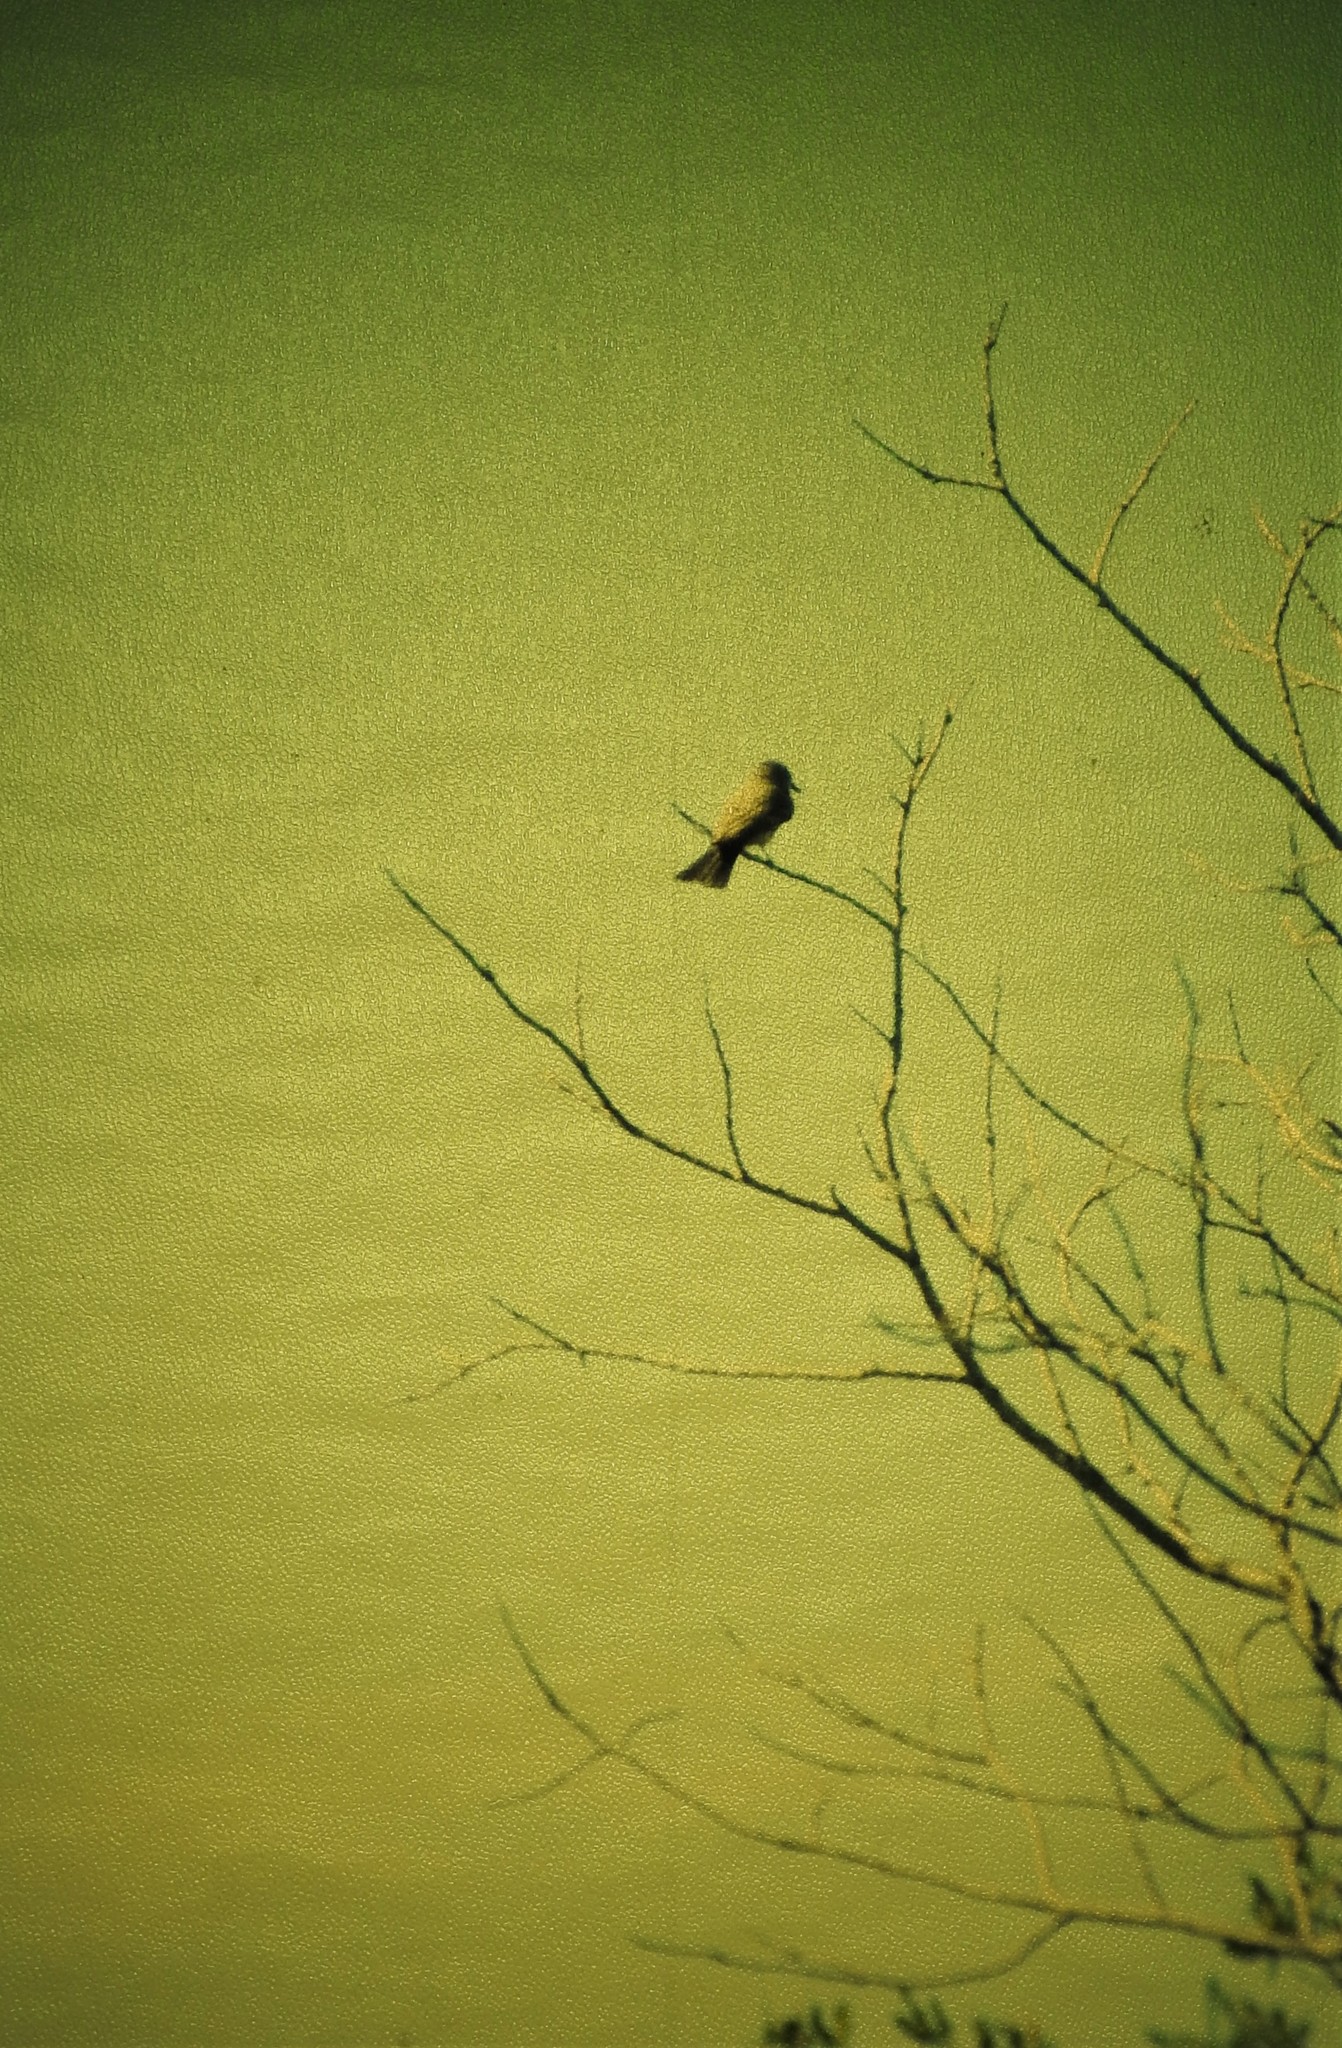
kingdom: Animalia
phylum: Chordata
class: Aves
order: Passeriformes
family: Tyrannidae
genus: Sayornis
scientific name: Sayornis saya
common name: Say's phoebe
